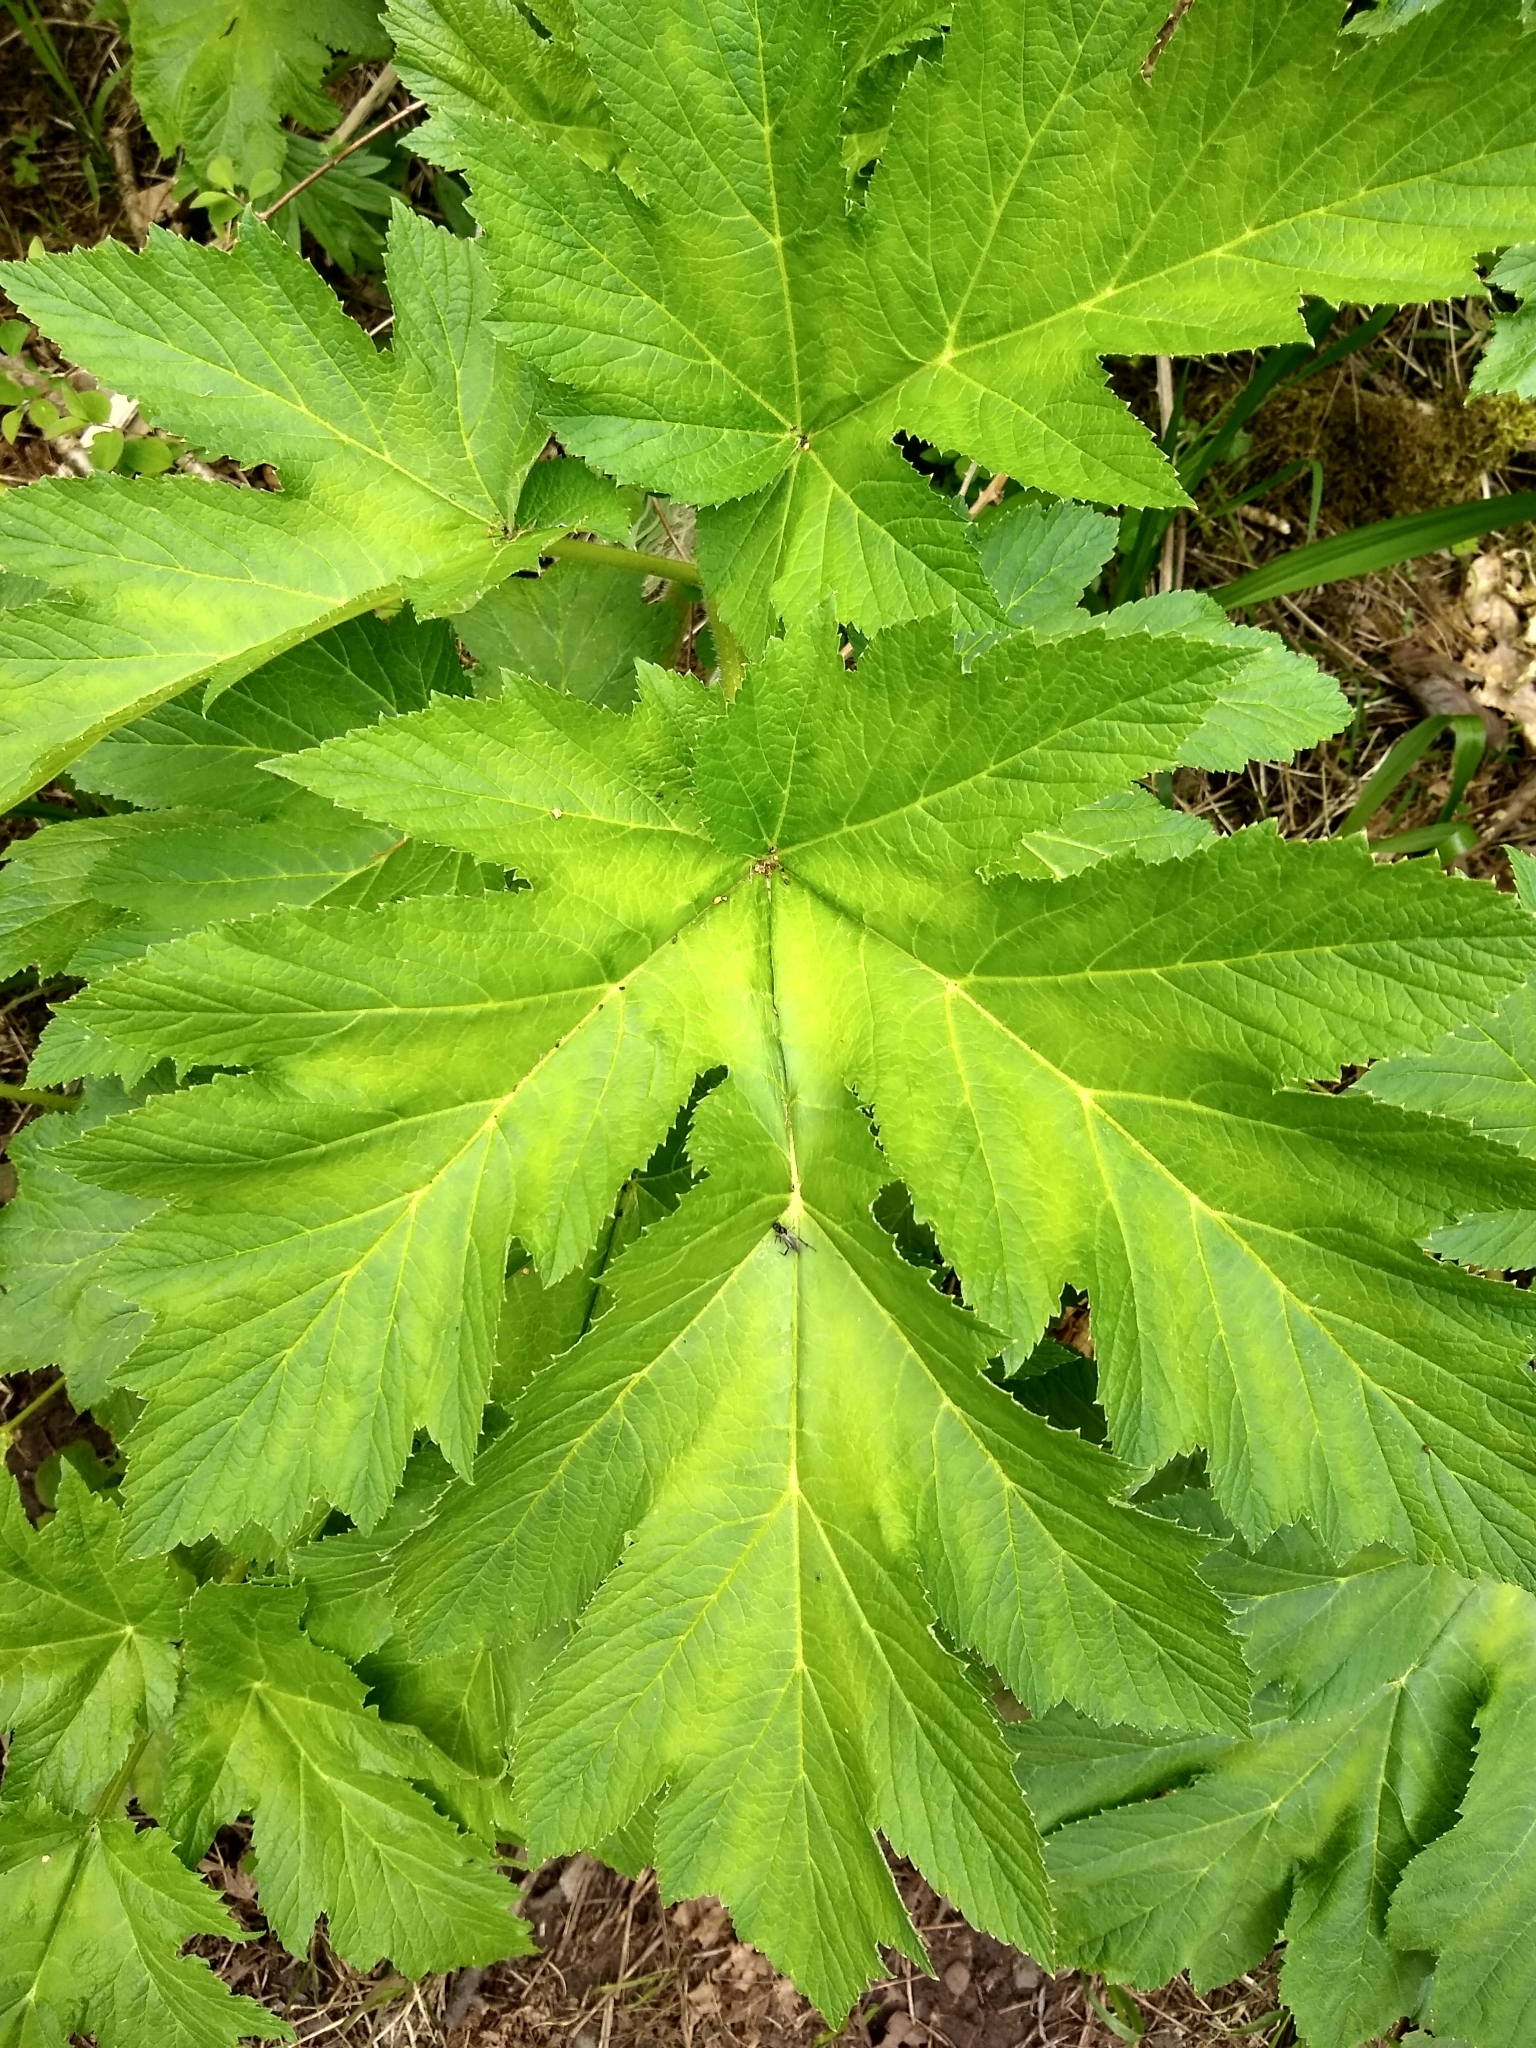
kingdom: Plantae
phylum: Tracheophyta
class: Magnoliopsida
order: Apiales
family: Apiaceae
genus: Heracleum
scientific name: Heracleum maximum
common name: American cow parsnip
